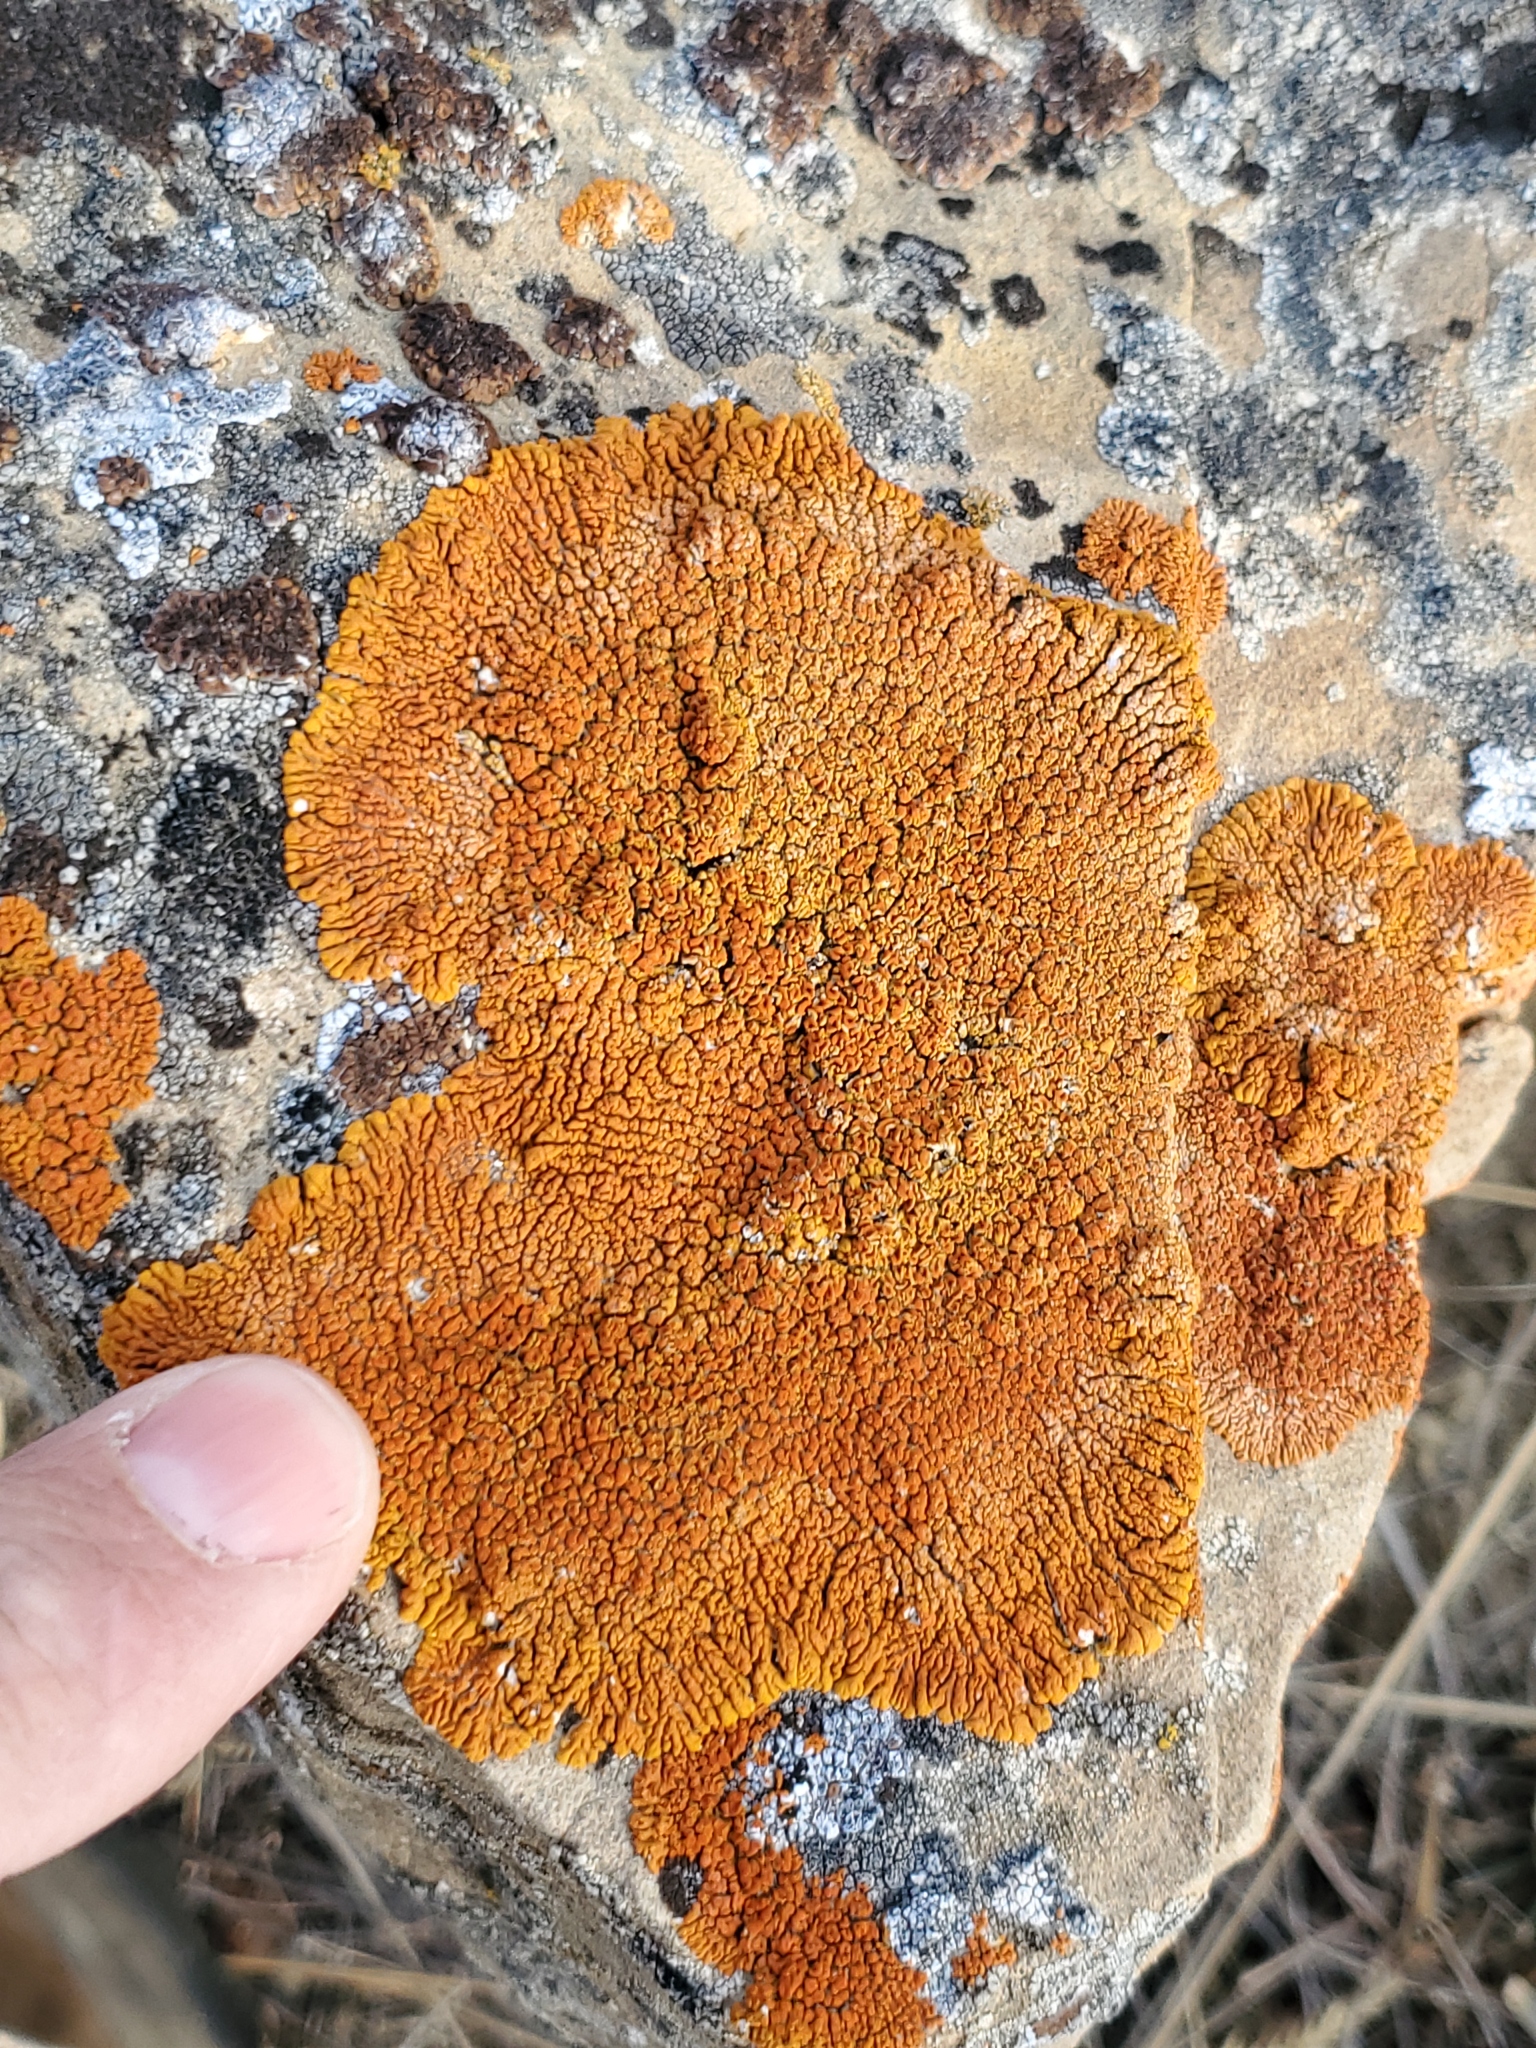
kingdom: Fungi
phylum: Ascomycota
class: Lecanoromycetes
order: Teloschistales
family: Teloschistaceae
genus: Xanthoria
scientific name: Xanthoria elegans
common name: Elegant sunburst lichen
